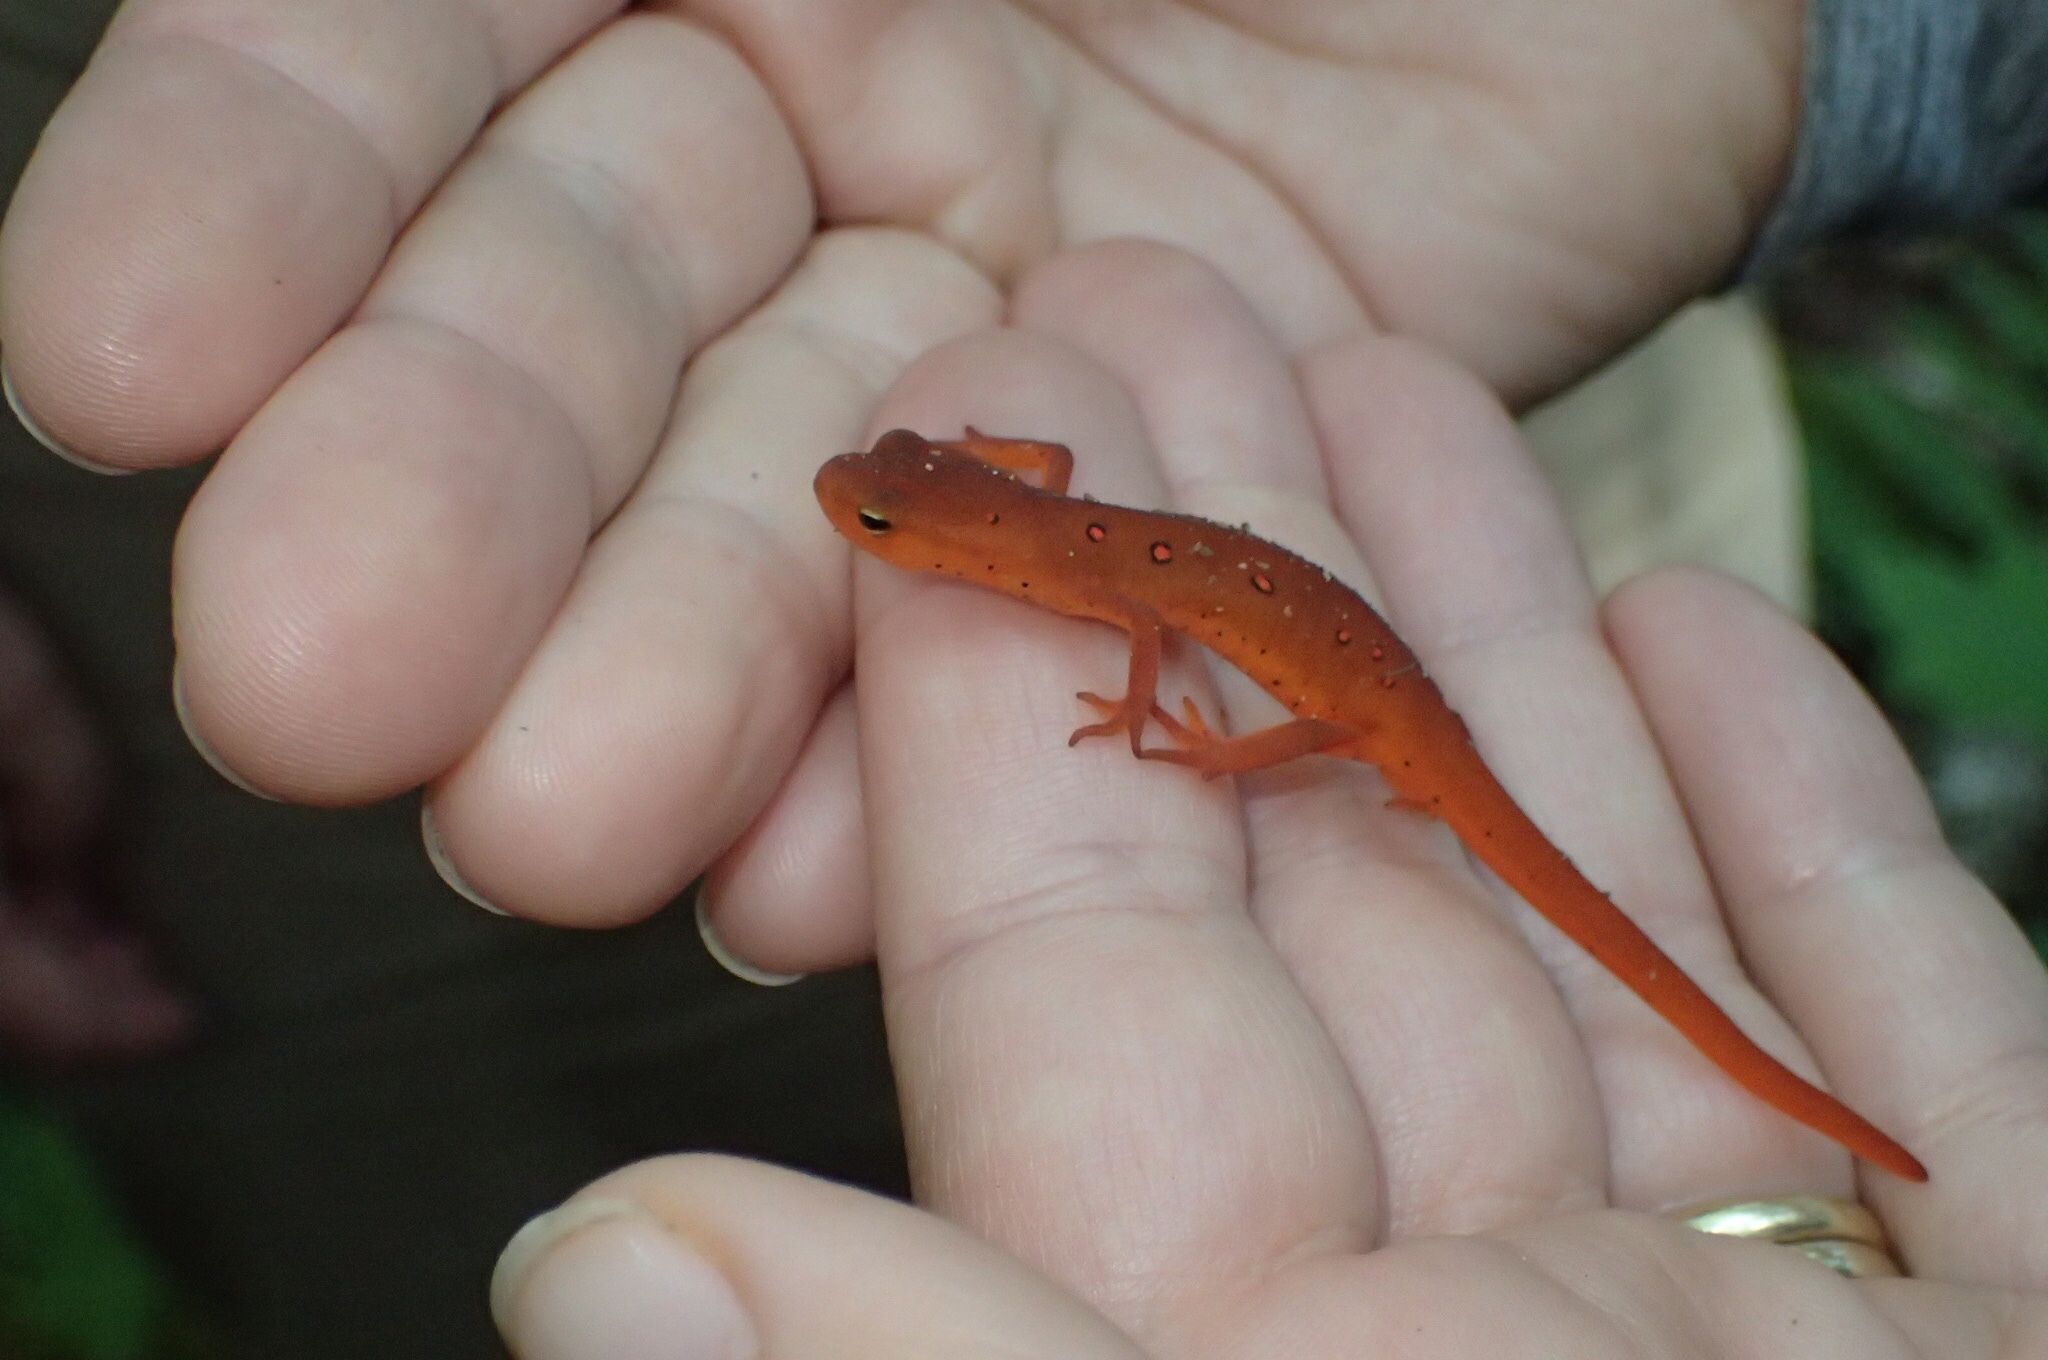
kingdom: Animalia
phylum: Chordata
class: Amphibia
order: Caudata
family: Salamandridae
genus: Notophthalmus
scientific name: Notophthalmus viridescens
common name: Eastern newt
